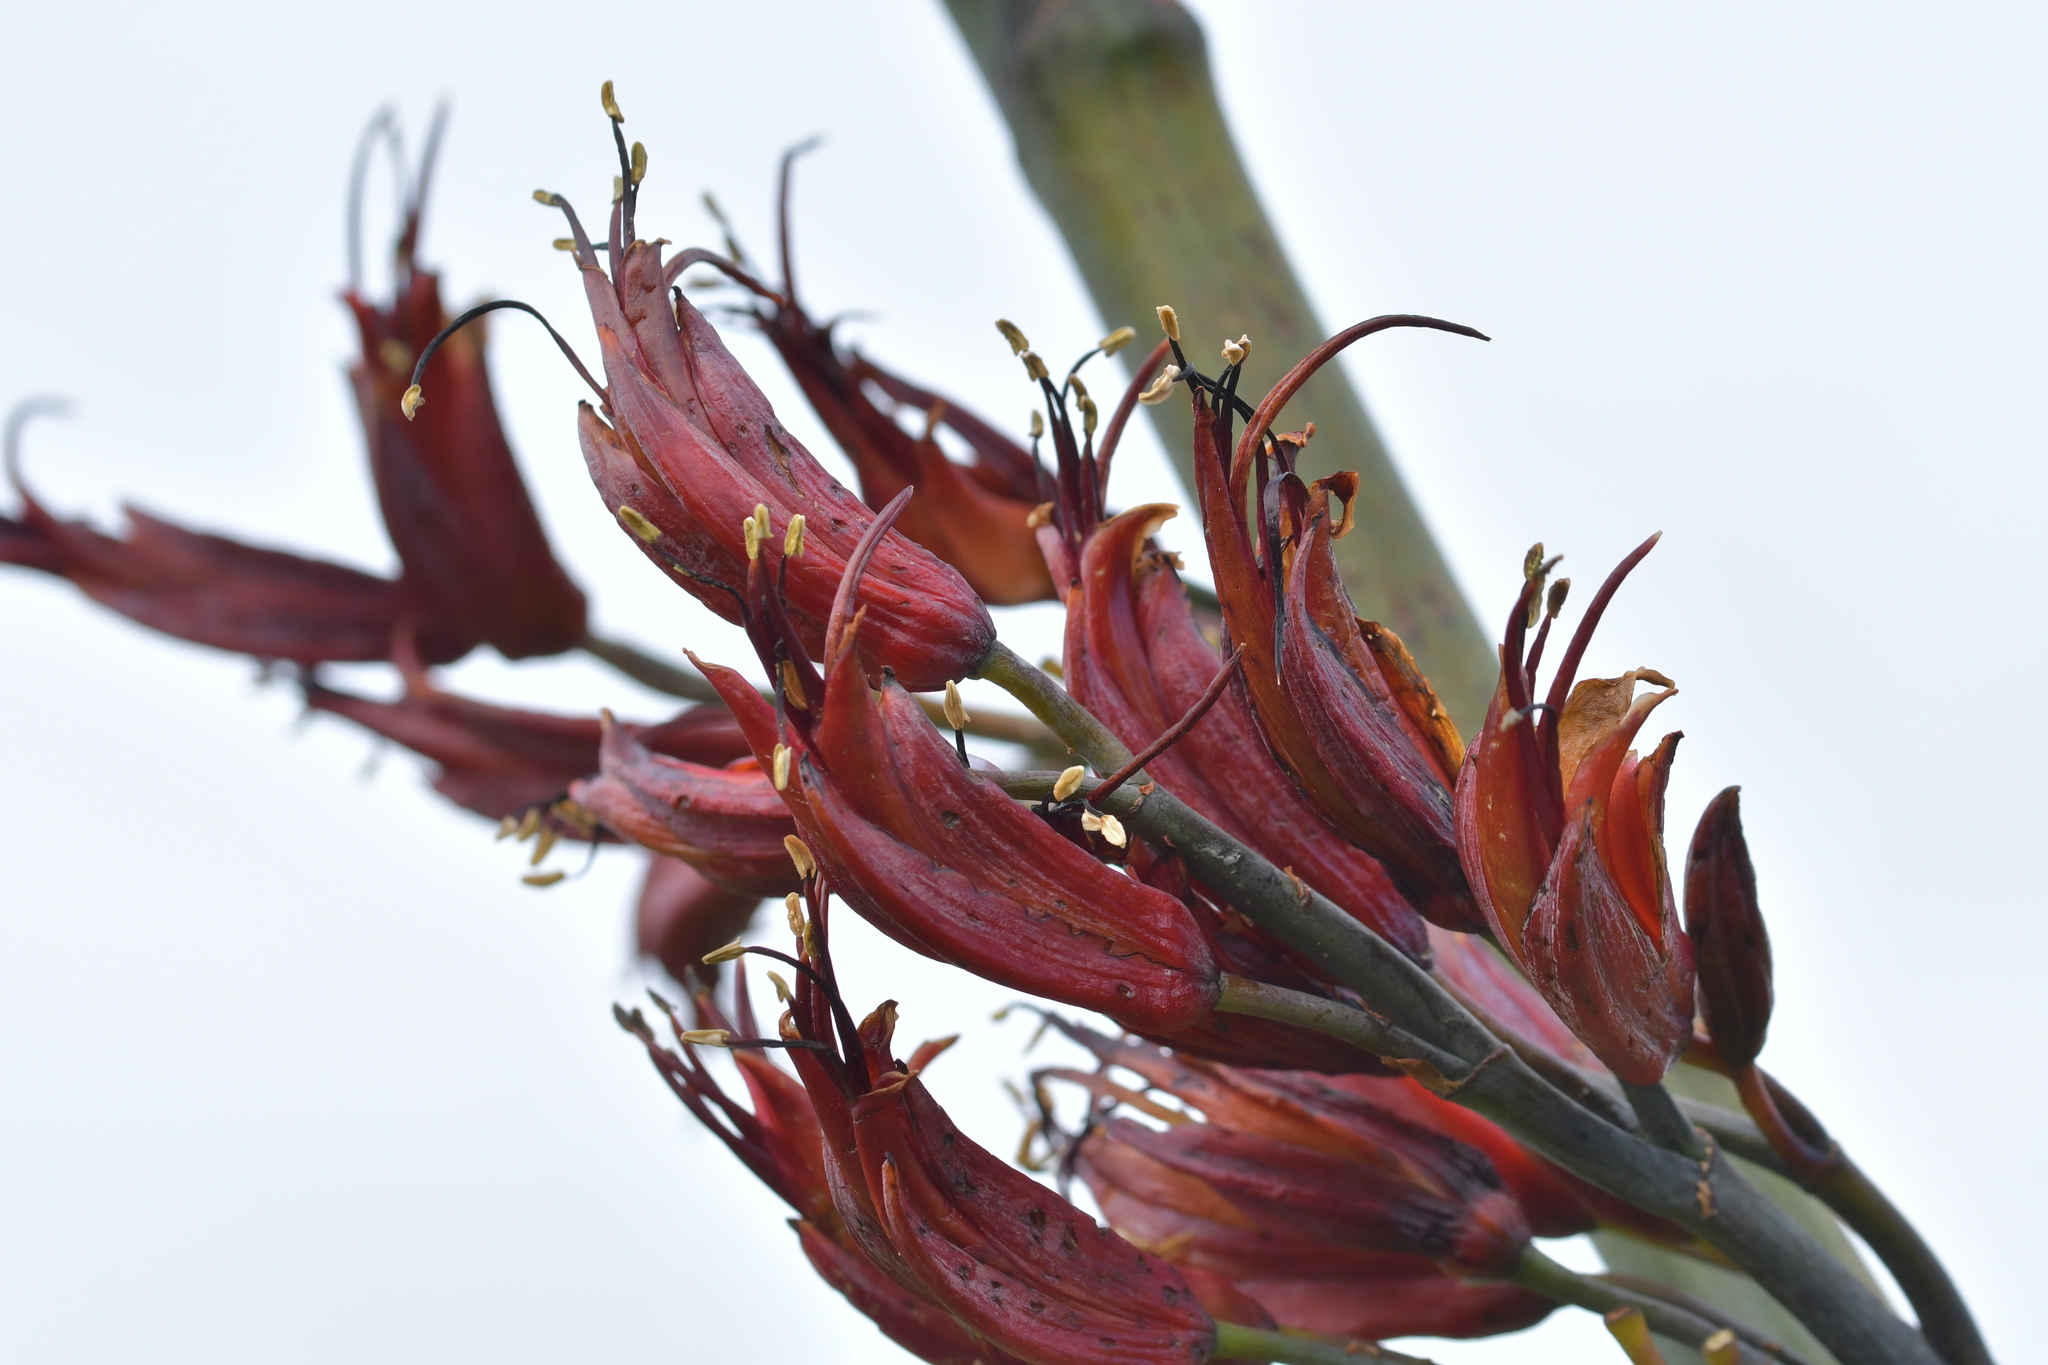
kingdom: Plantae
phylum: Tracheophyta
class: Liliopsida
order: Asparagales
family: Asphodelaceae
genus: Phormium
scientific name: Phormium tenax
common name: New zealand flax
